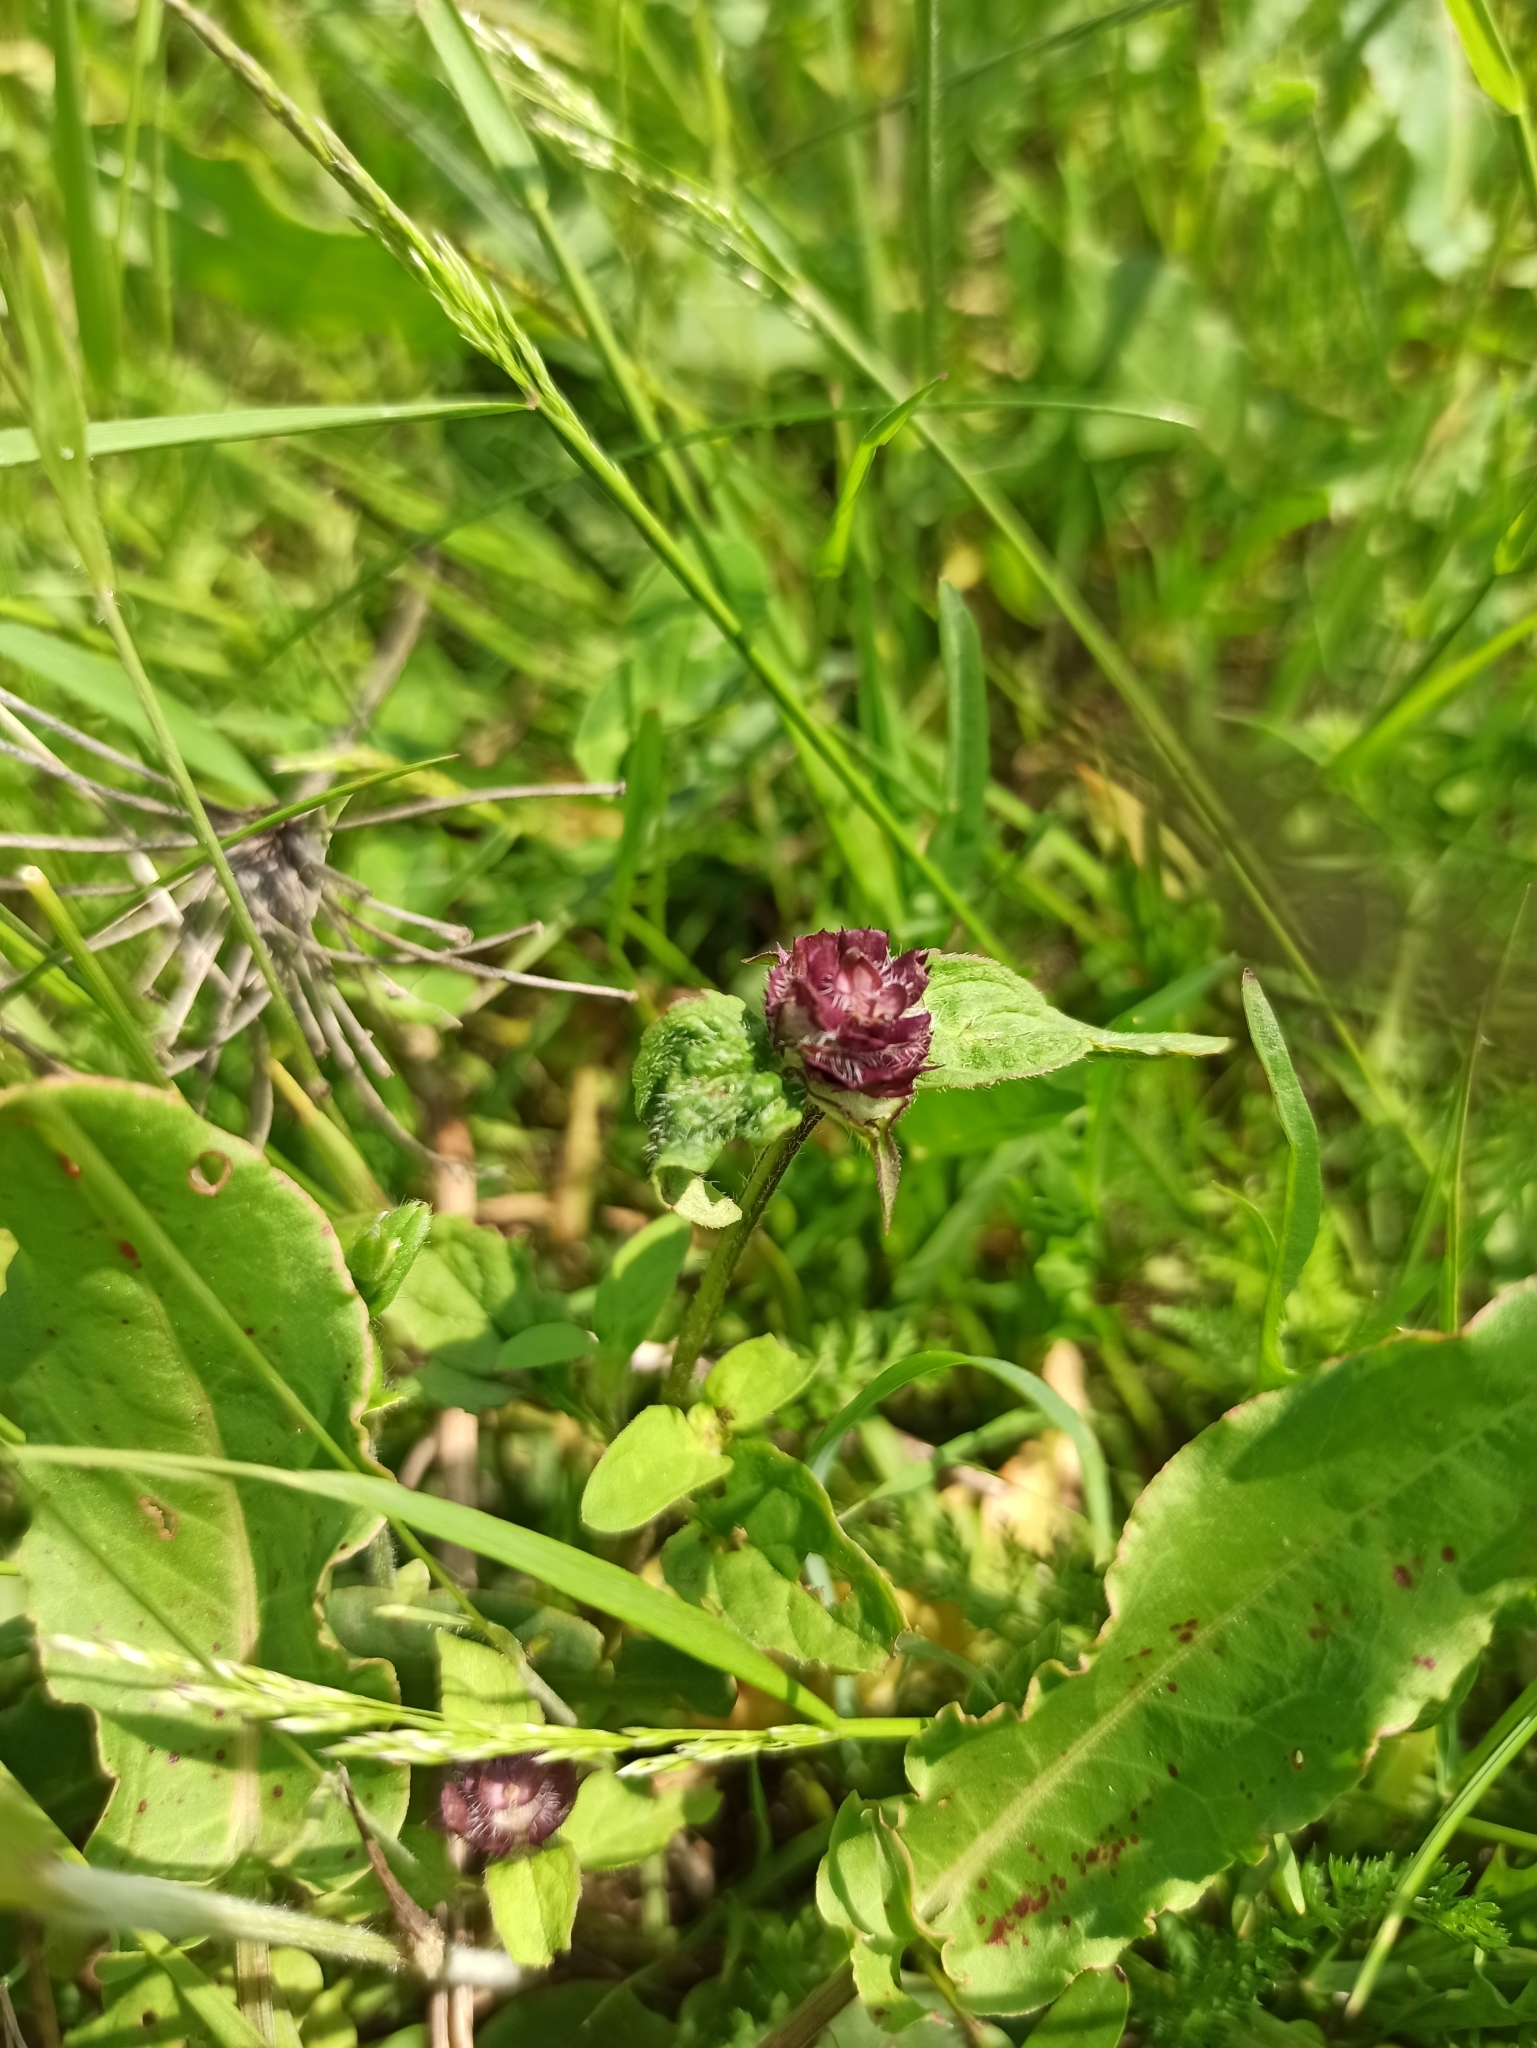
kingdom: Plantae
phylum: Tracheophyta
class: Magnoliopsida
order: Lamiales
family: Lamiaceae
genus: Prunella
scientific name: Prunella vulgaris
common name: Heal-all
